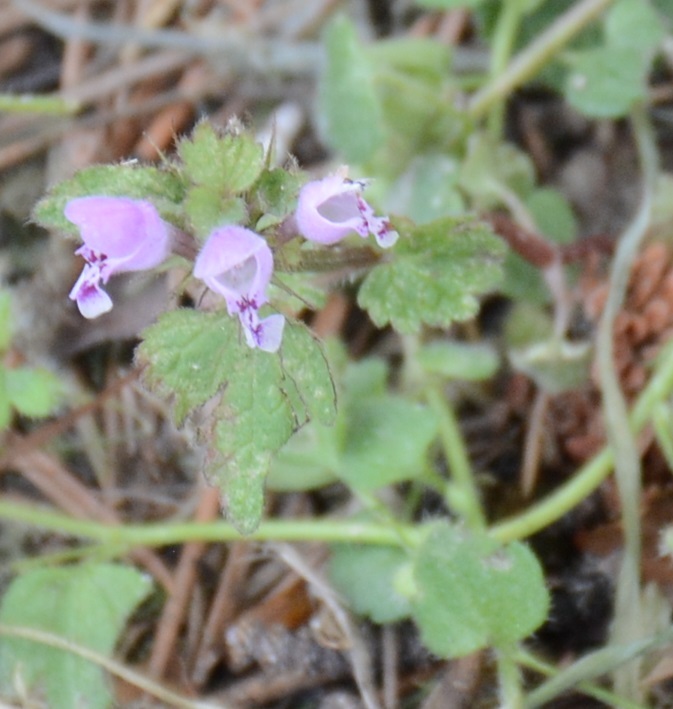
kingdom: Plantae
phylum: Tracheophyta
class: Magnoliopsida
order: Lamiales
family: Lamiaceae
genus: Lamium
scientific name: Lamium purpureum
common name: Red dead-nettle
